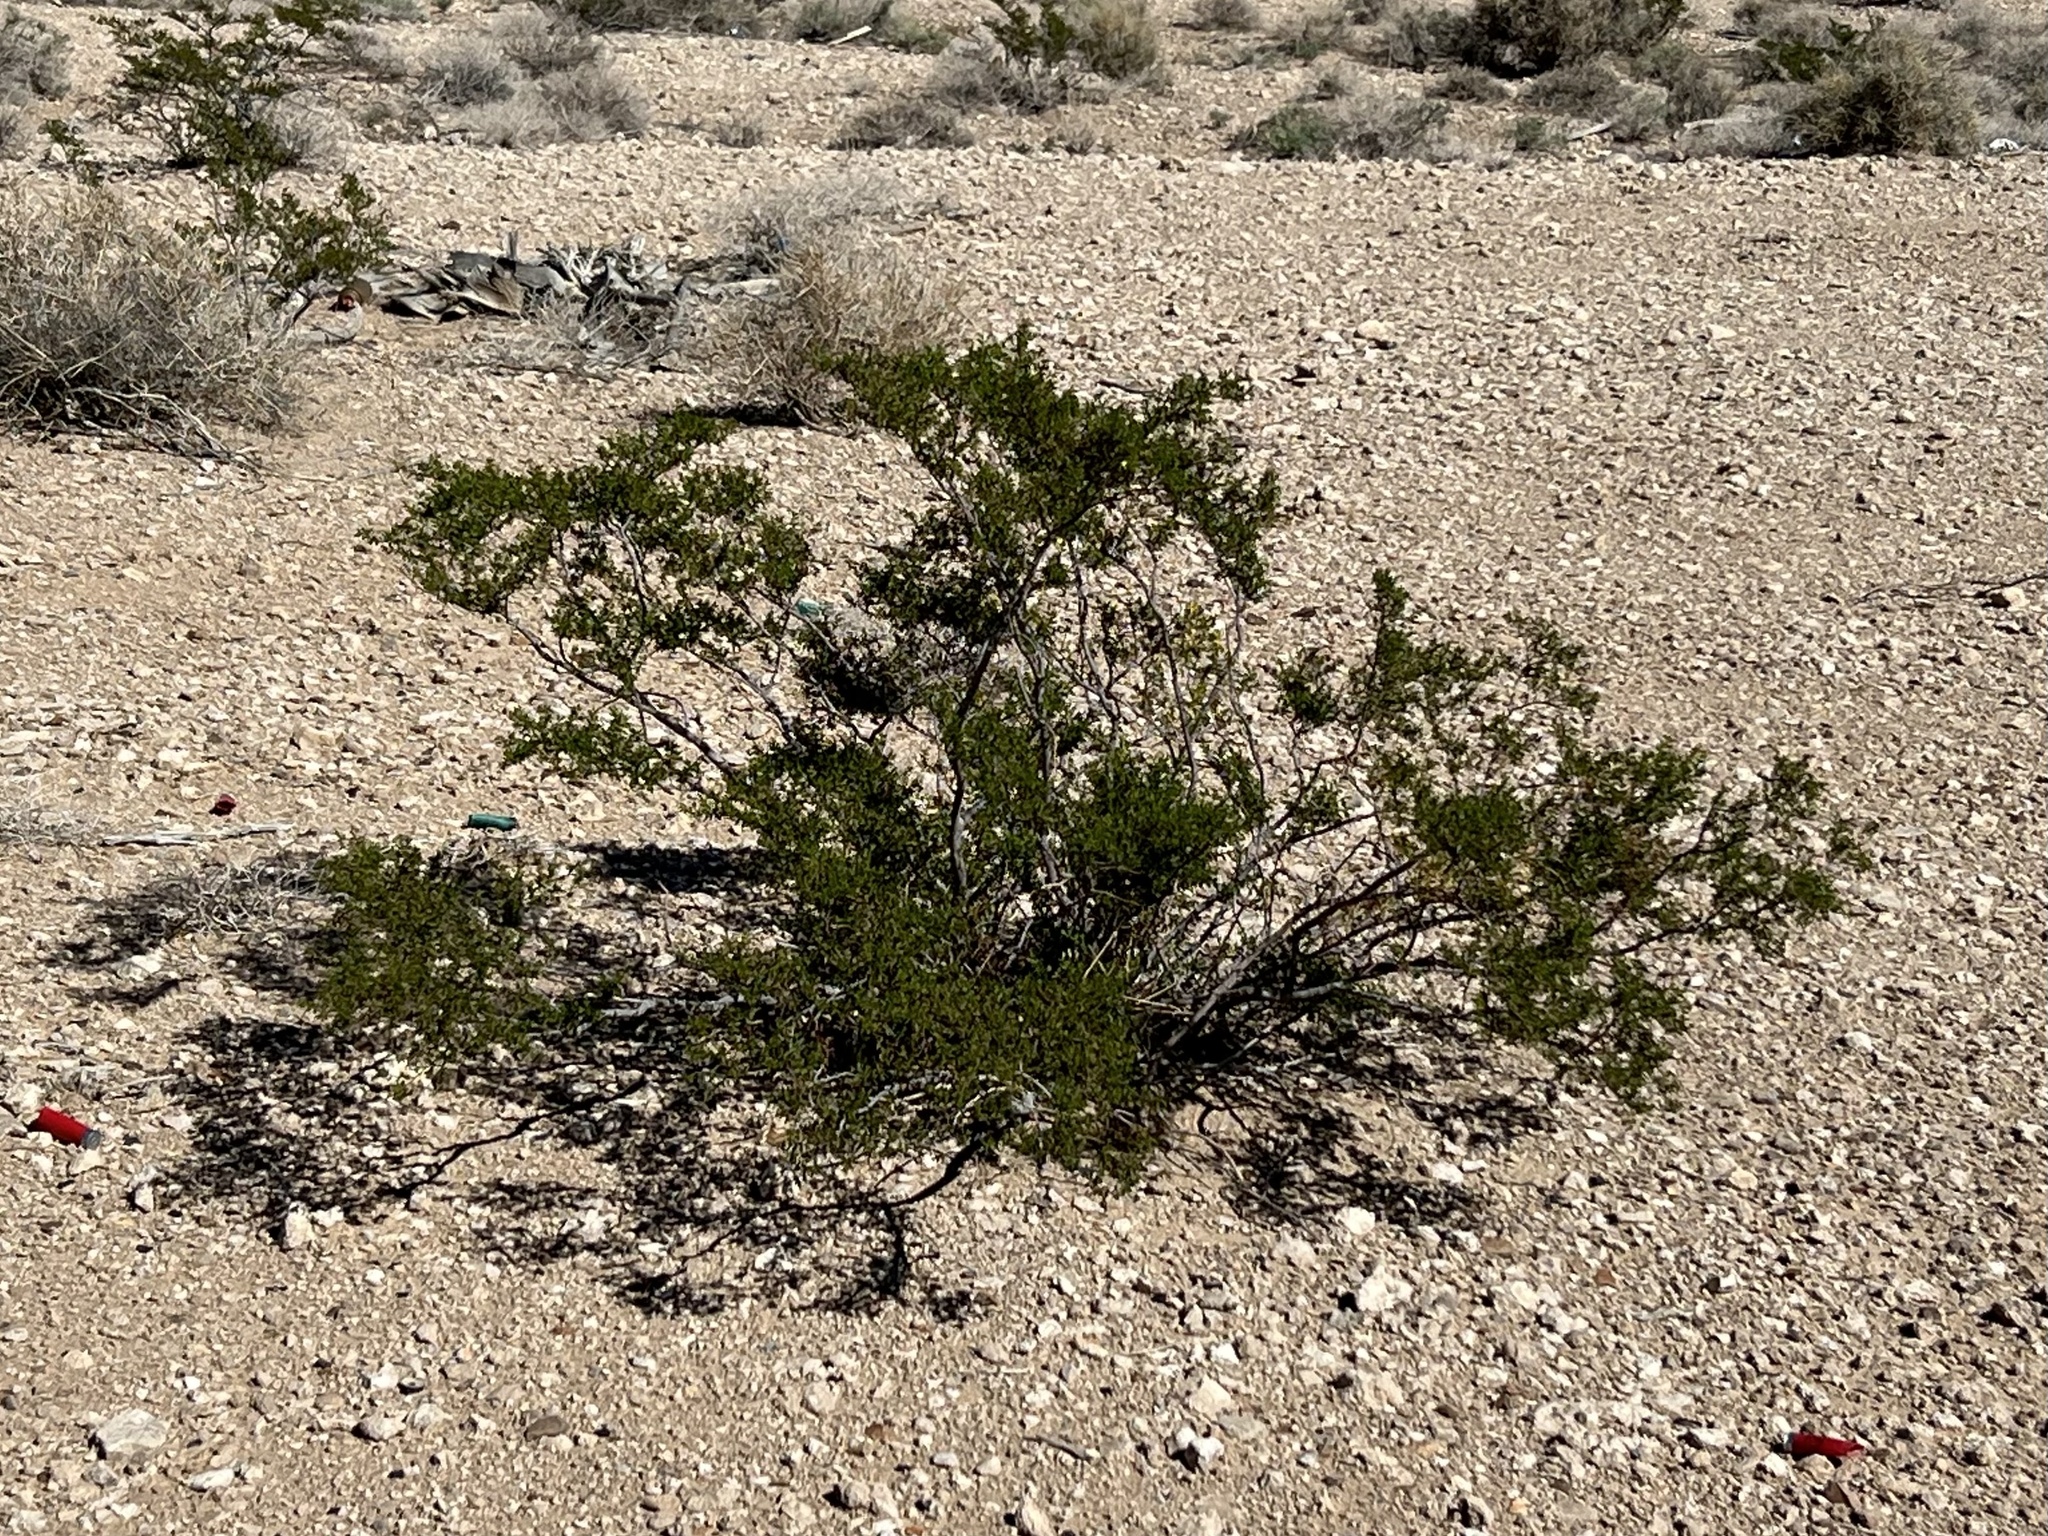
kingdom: Plantae
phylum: Tracheophyta
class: Magnoliopsida
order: Zygophyllales
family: Zygophyllaceae
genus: Larrea
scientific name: Larrea tridentata
